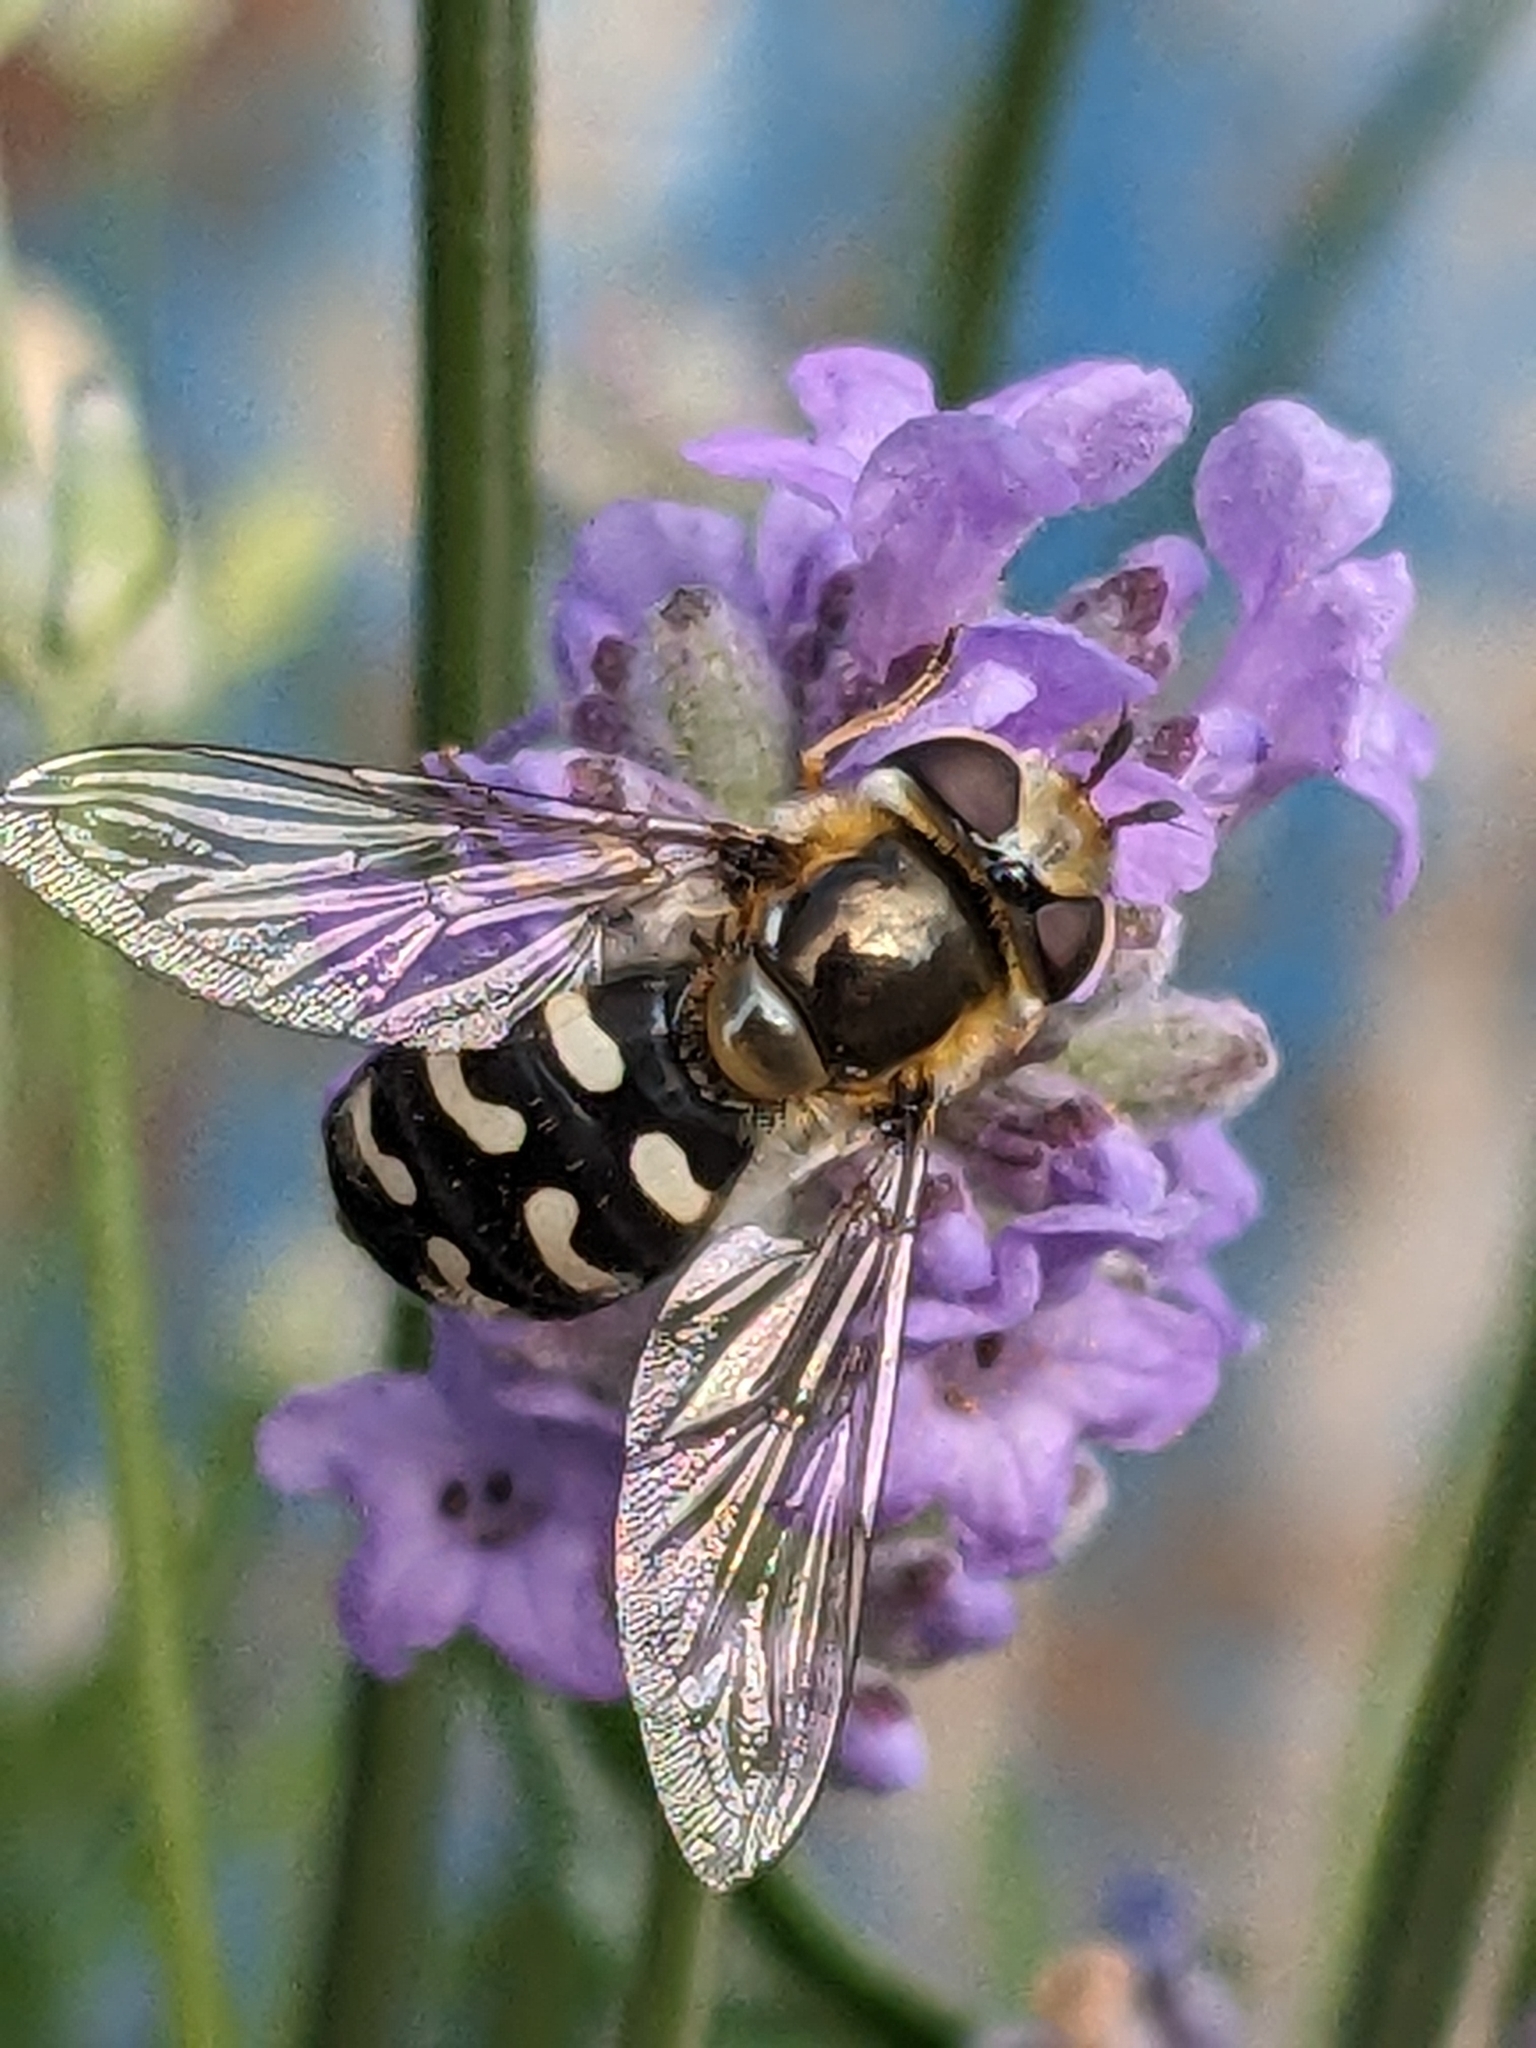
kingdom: Animalia
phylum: Arthropoda
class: Insecta
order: Diptera
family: Syrphidae
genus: Scaeva
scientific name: Scaeva pyrastri
